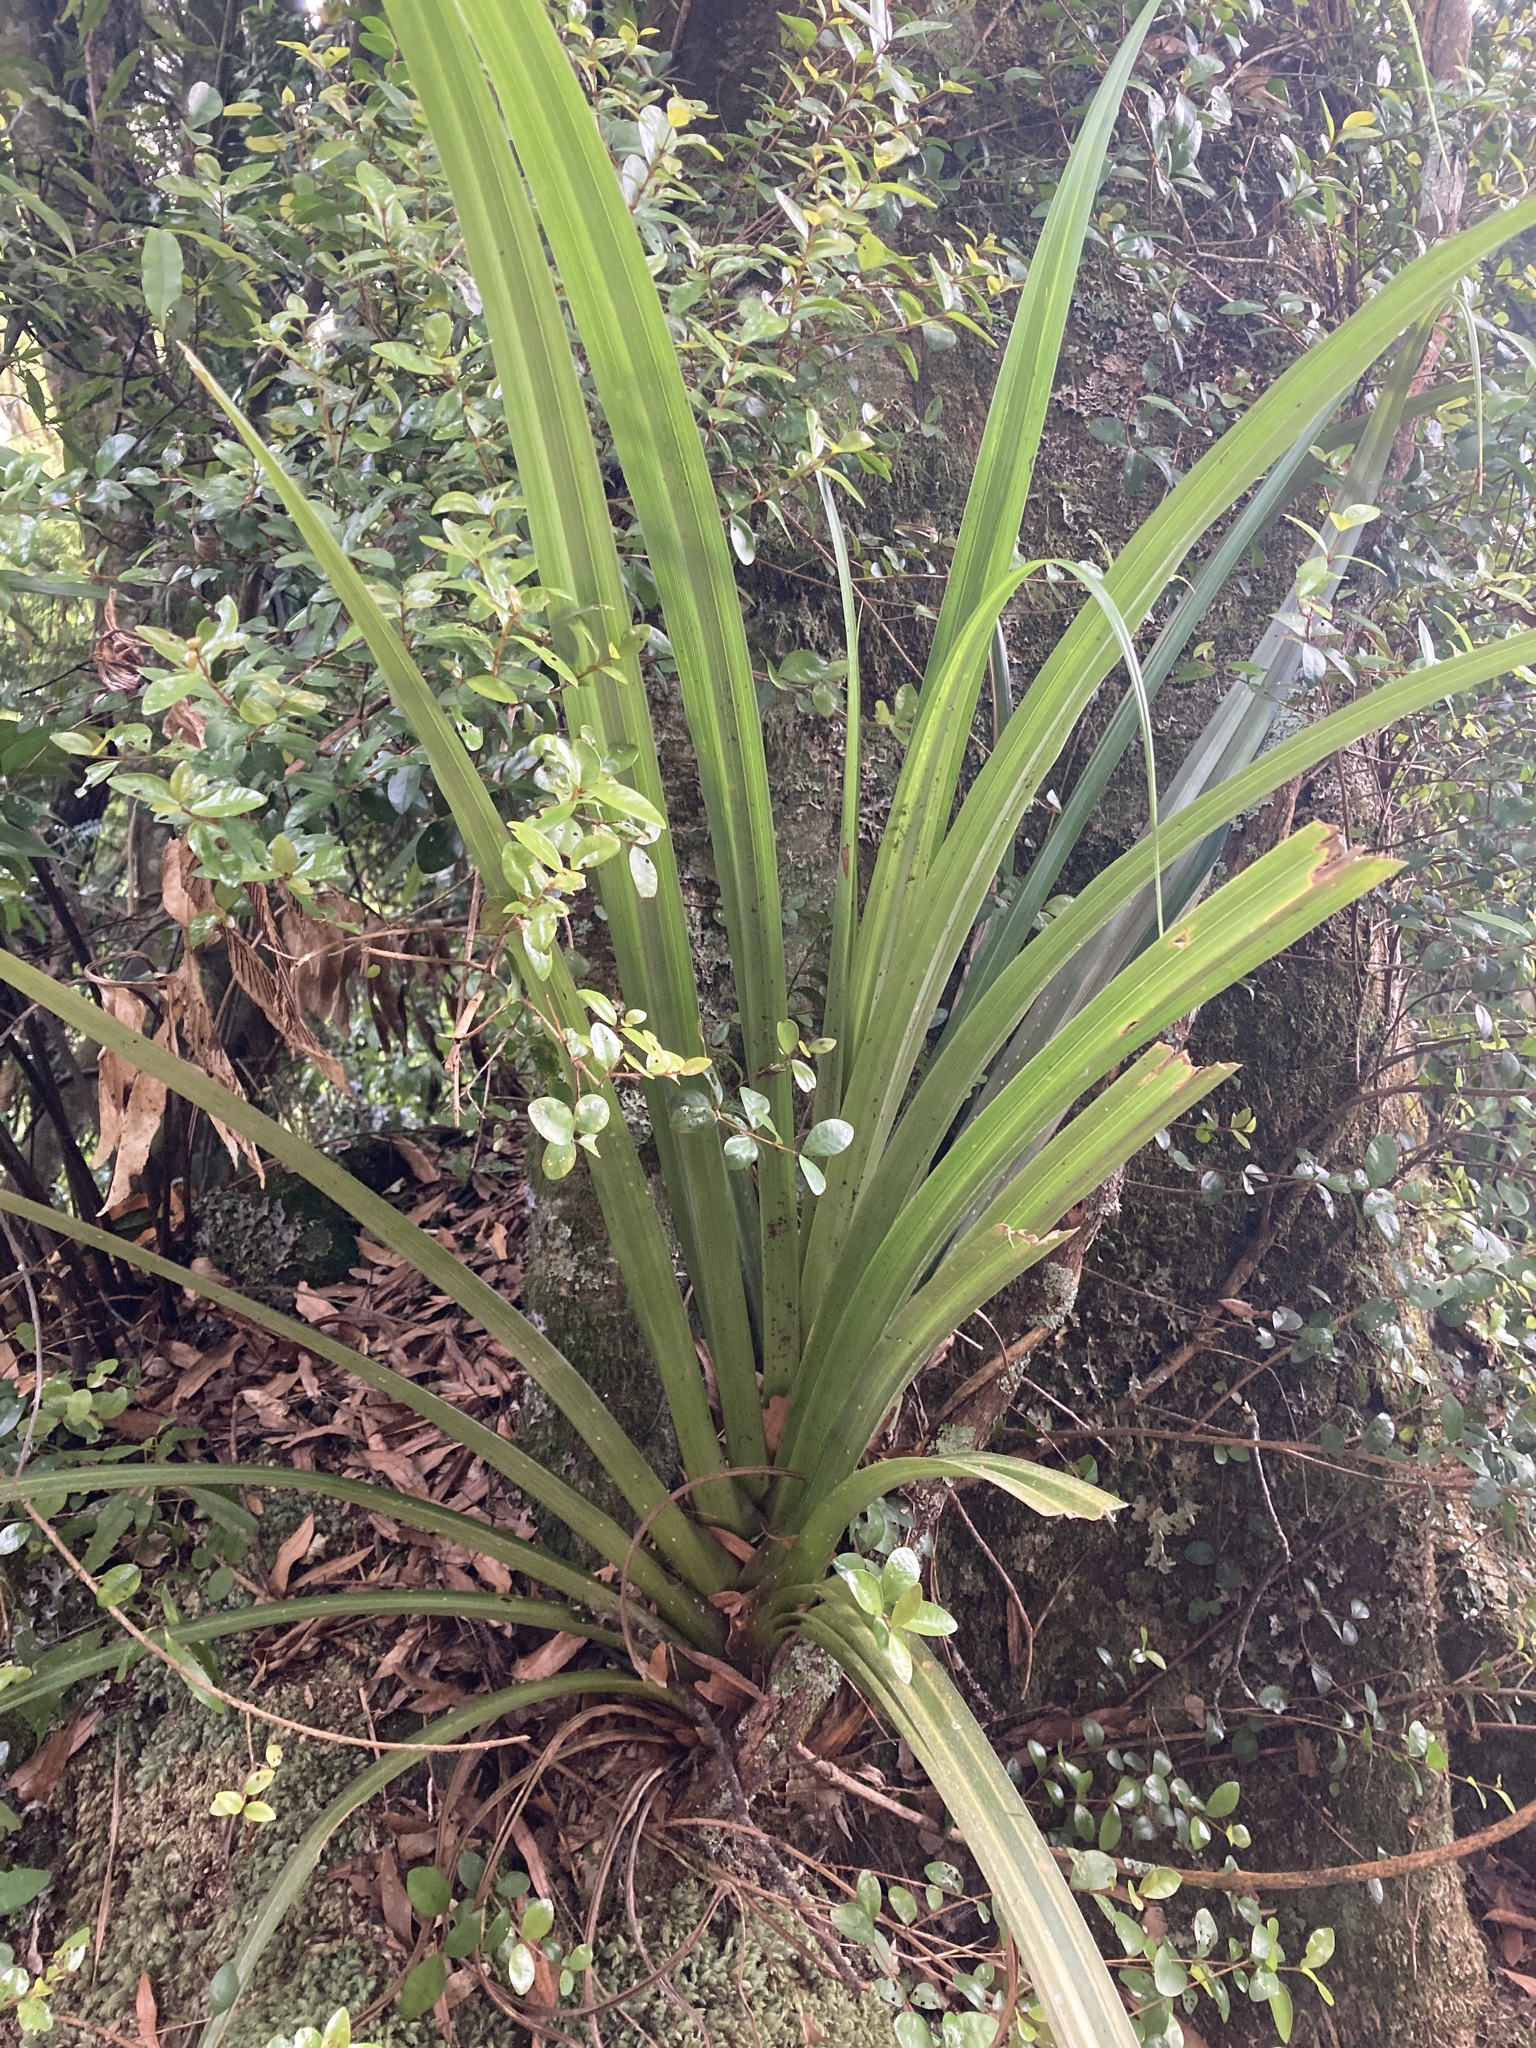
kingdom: Plantae
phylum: Tracheophyta
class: Liliopsida
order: Asparagales
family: Asteliaceae
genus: Astelia
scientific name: Astelia hastata
